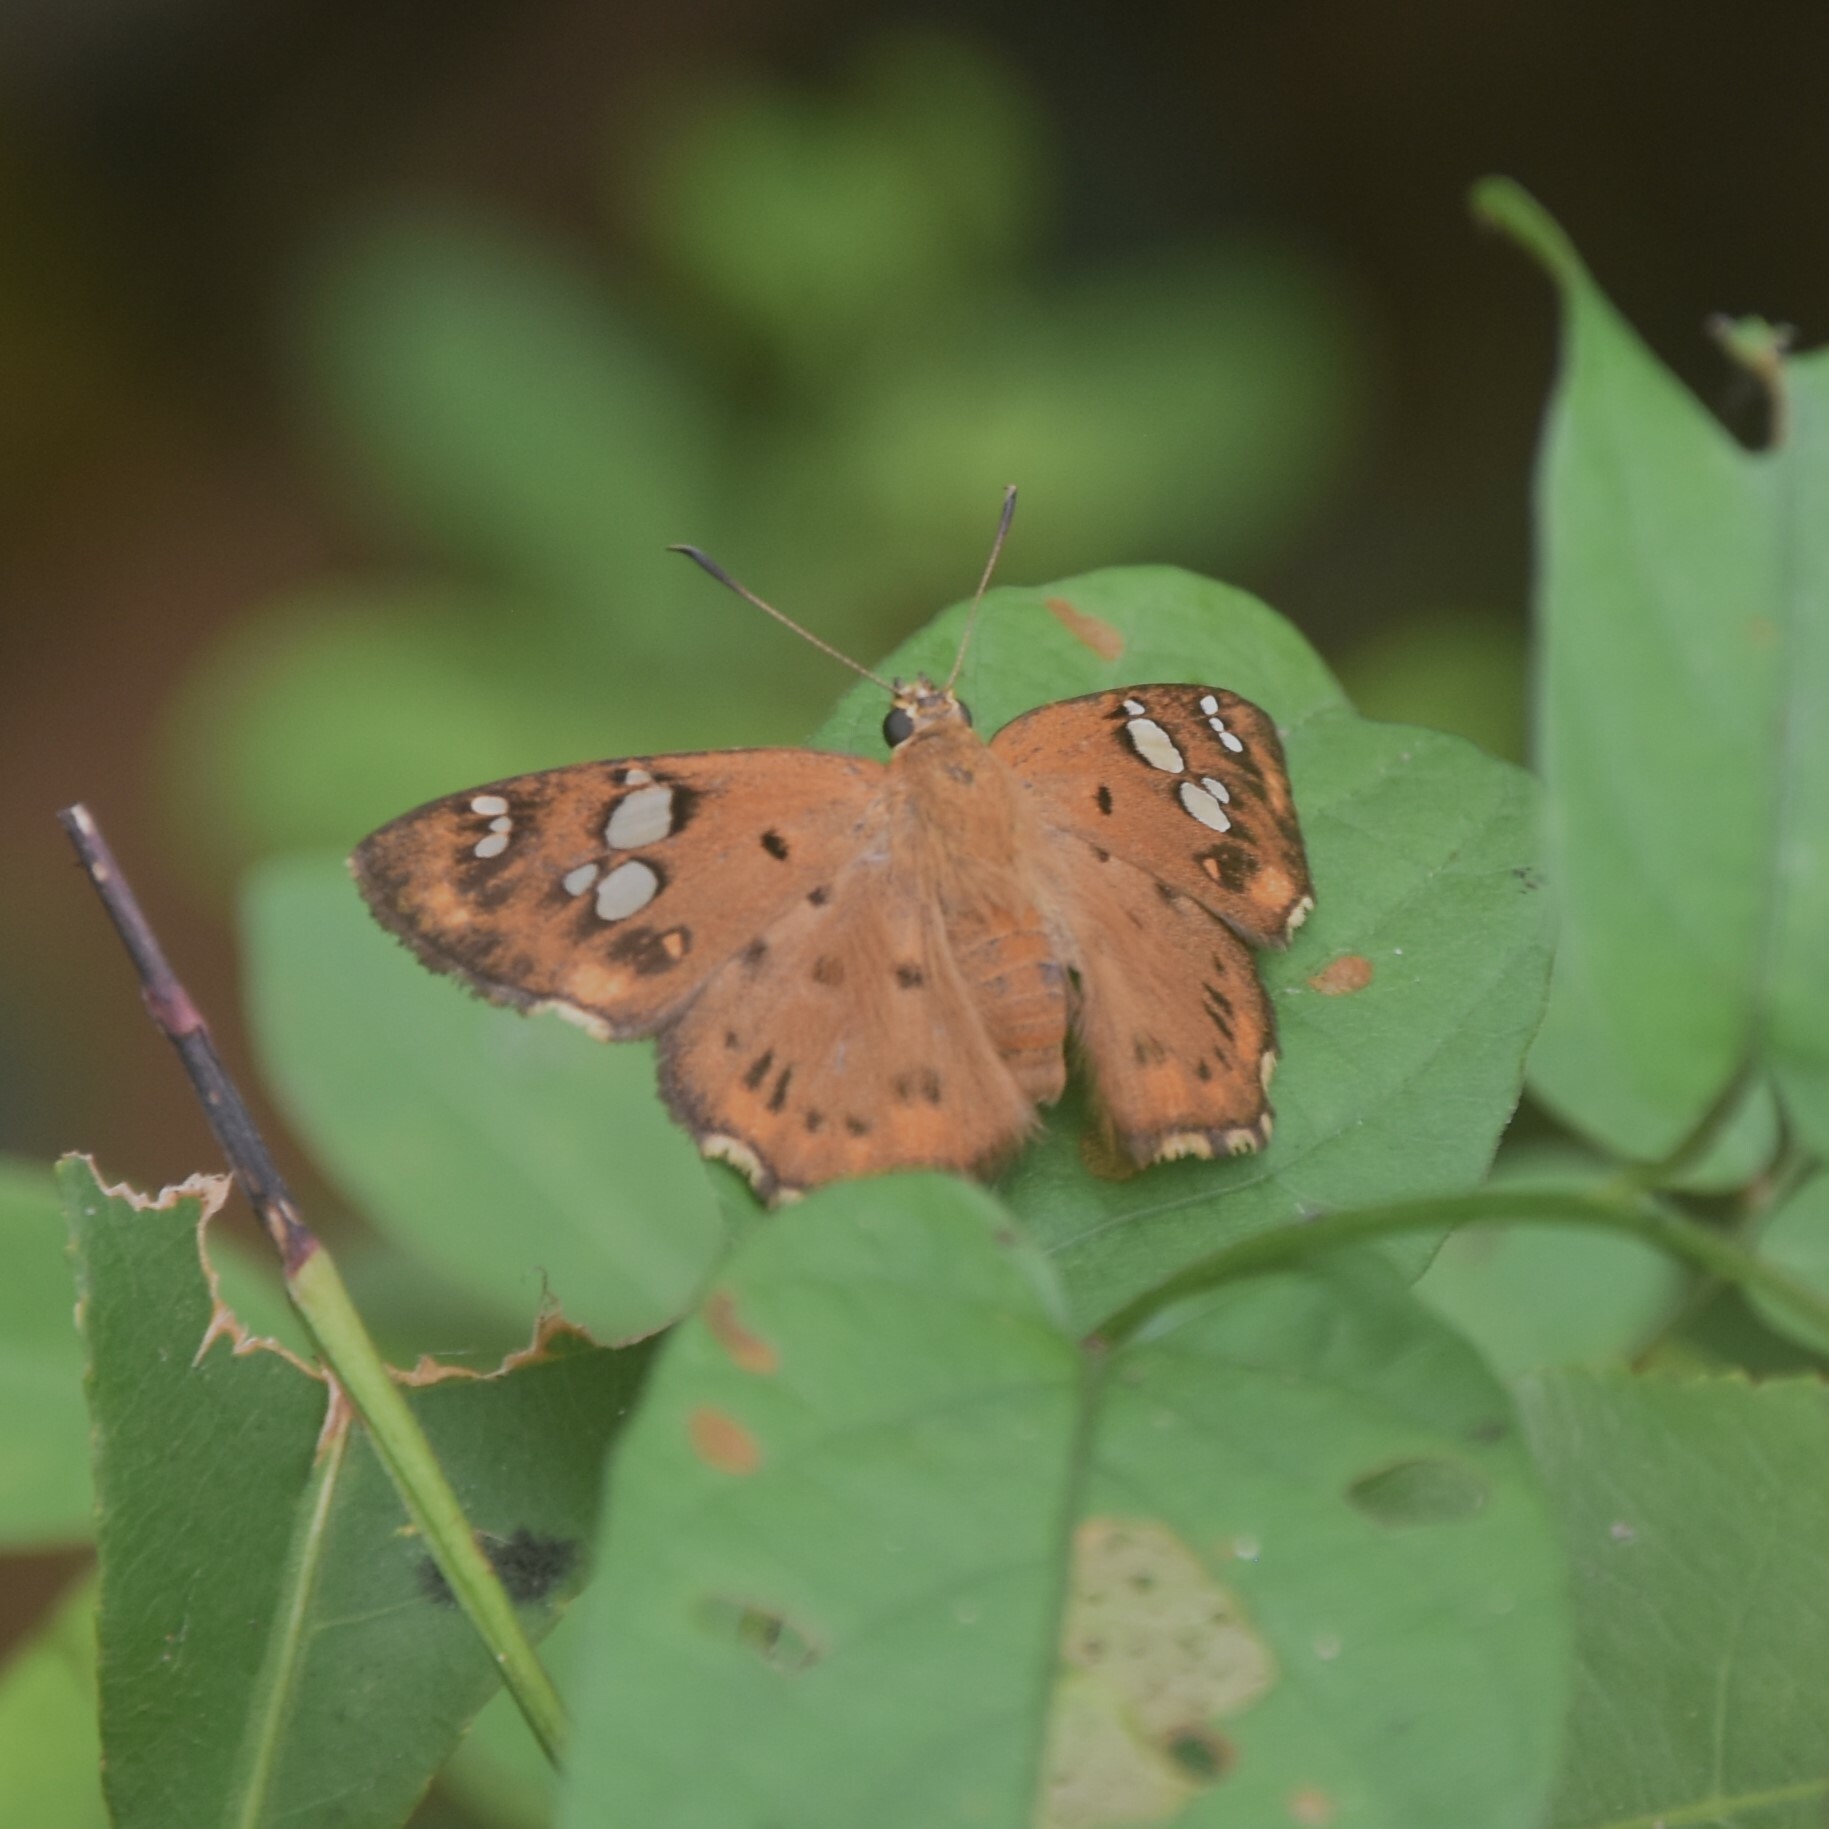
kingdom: Animalia
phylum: Arthropoda
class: Insecta
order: Lepidoptera
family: Hesperiidae
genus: Coladenia
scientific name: Coladenia
